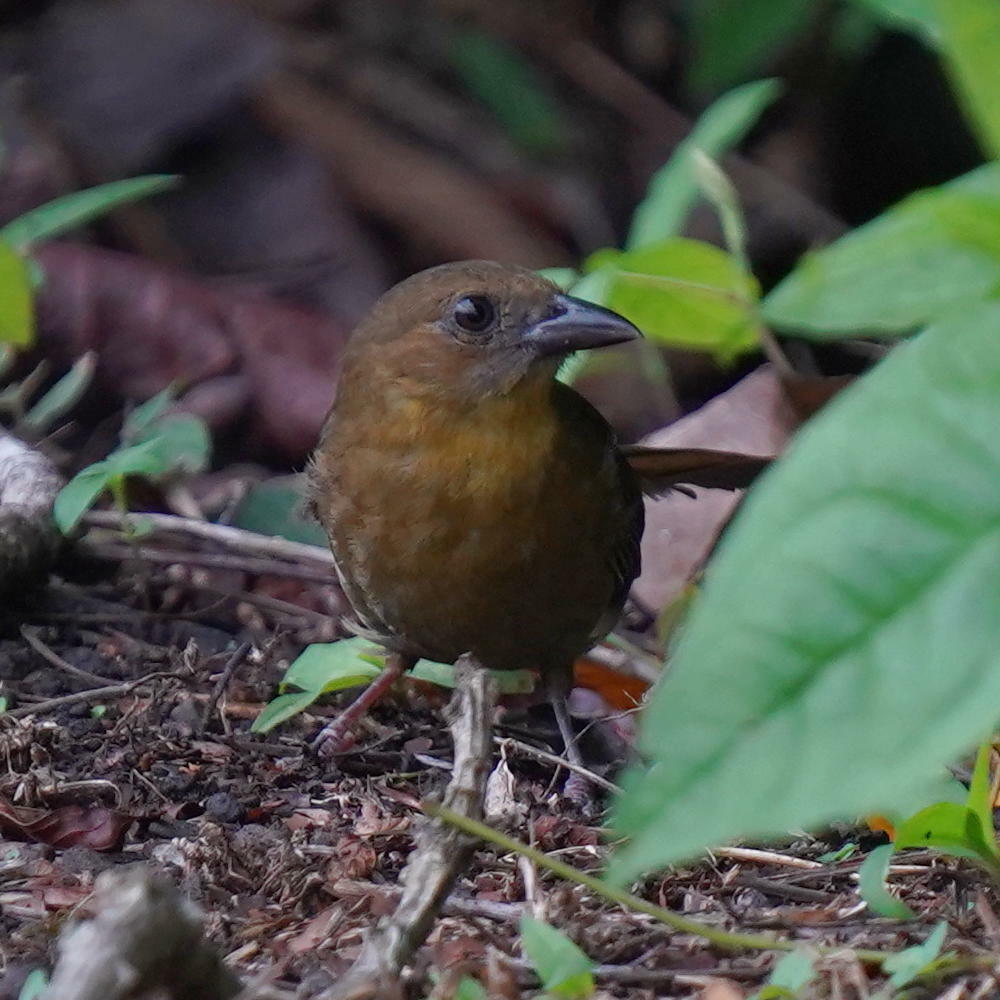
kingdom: Animalia
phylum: Chordata
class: Aves
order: Passeriformes
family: Cardinalidae
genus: Habia
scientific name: Habia fuscicauda
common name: Red-throated ant-tanager
